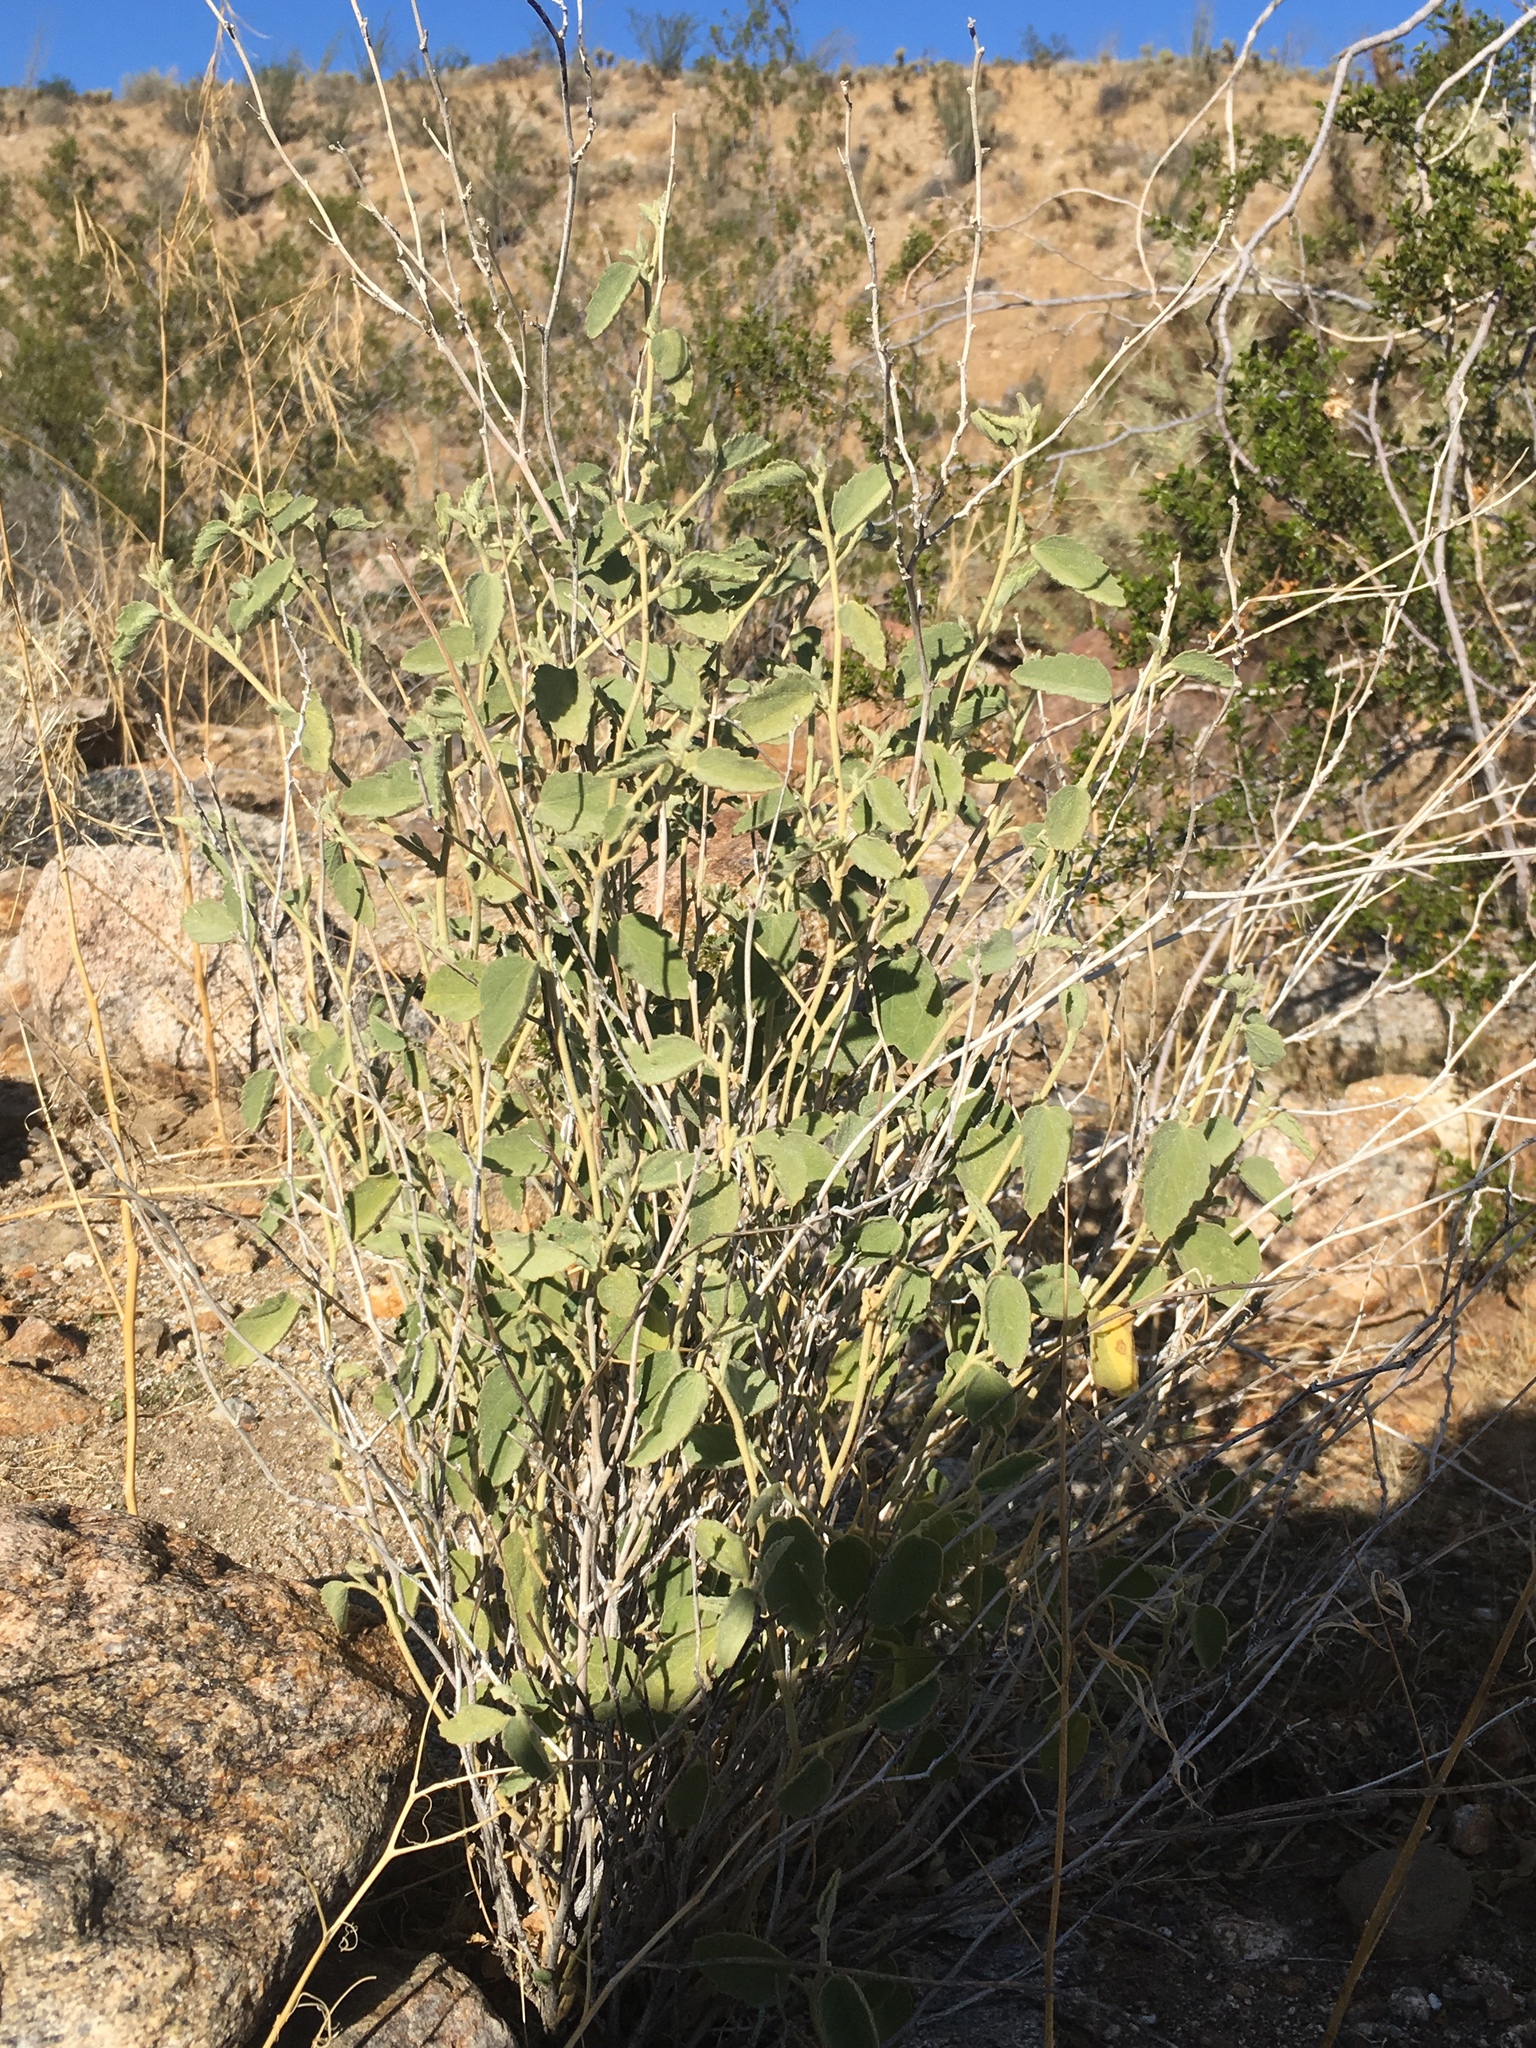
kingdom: Plantae
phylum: Tracheophyta
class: Magnoliopsida
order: Malvales
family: Malvaceae
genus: Hibiscus
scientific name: Hibiscus denudatus
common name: Paleface
